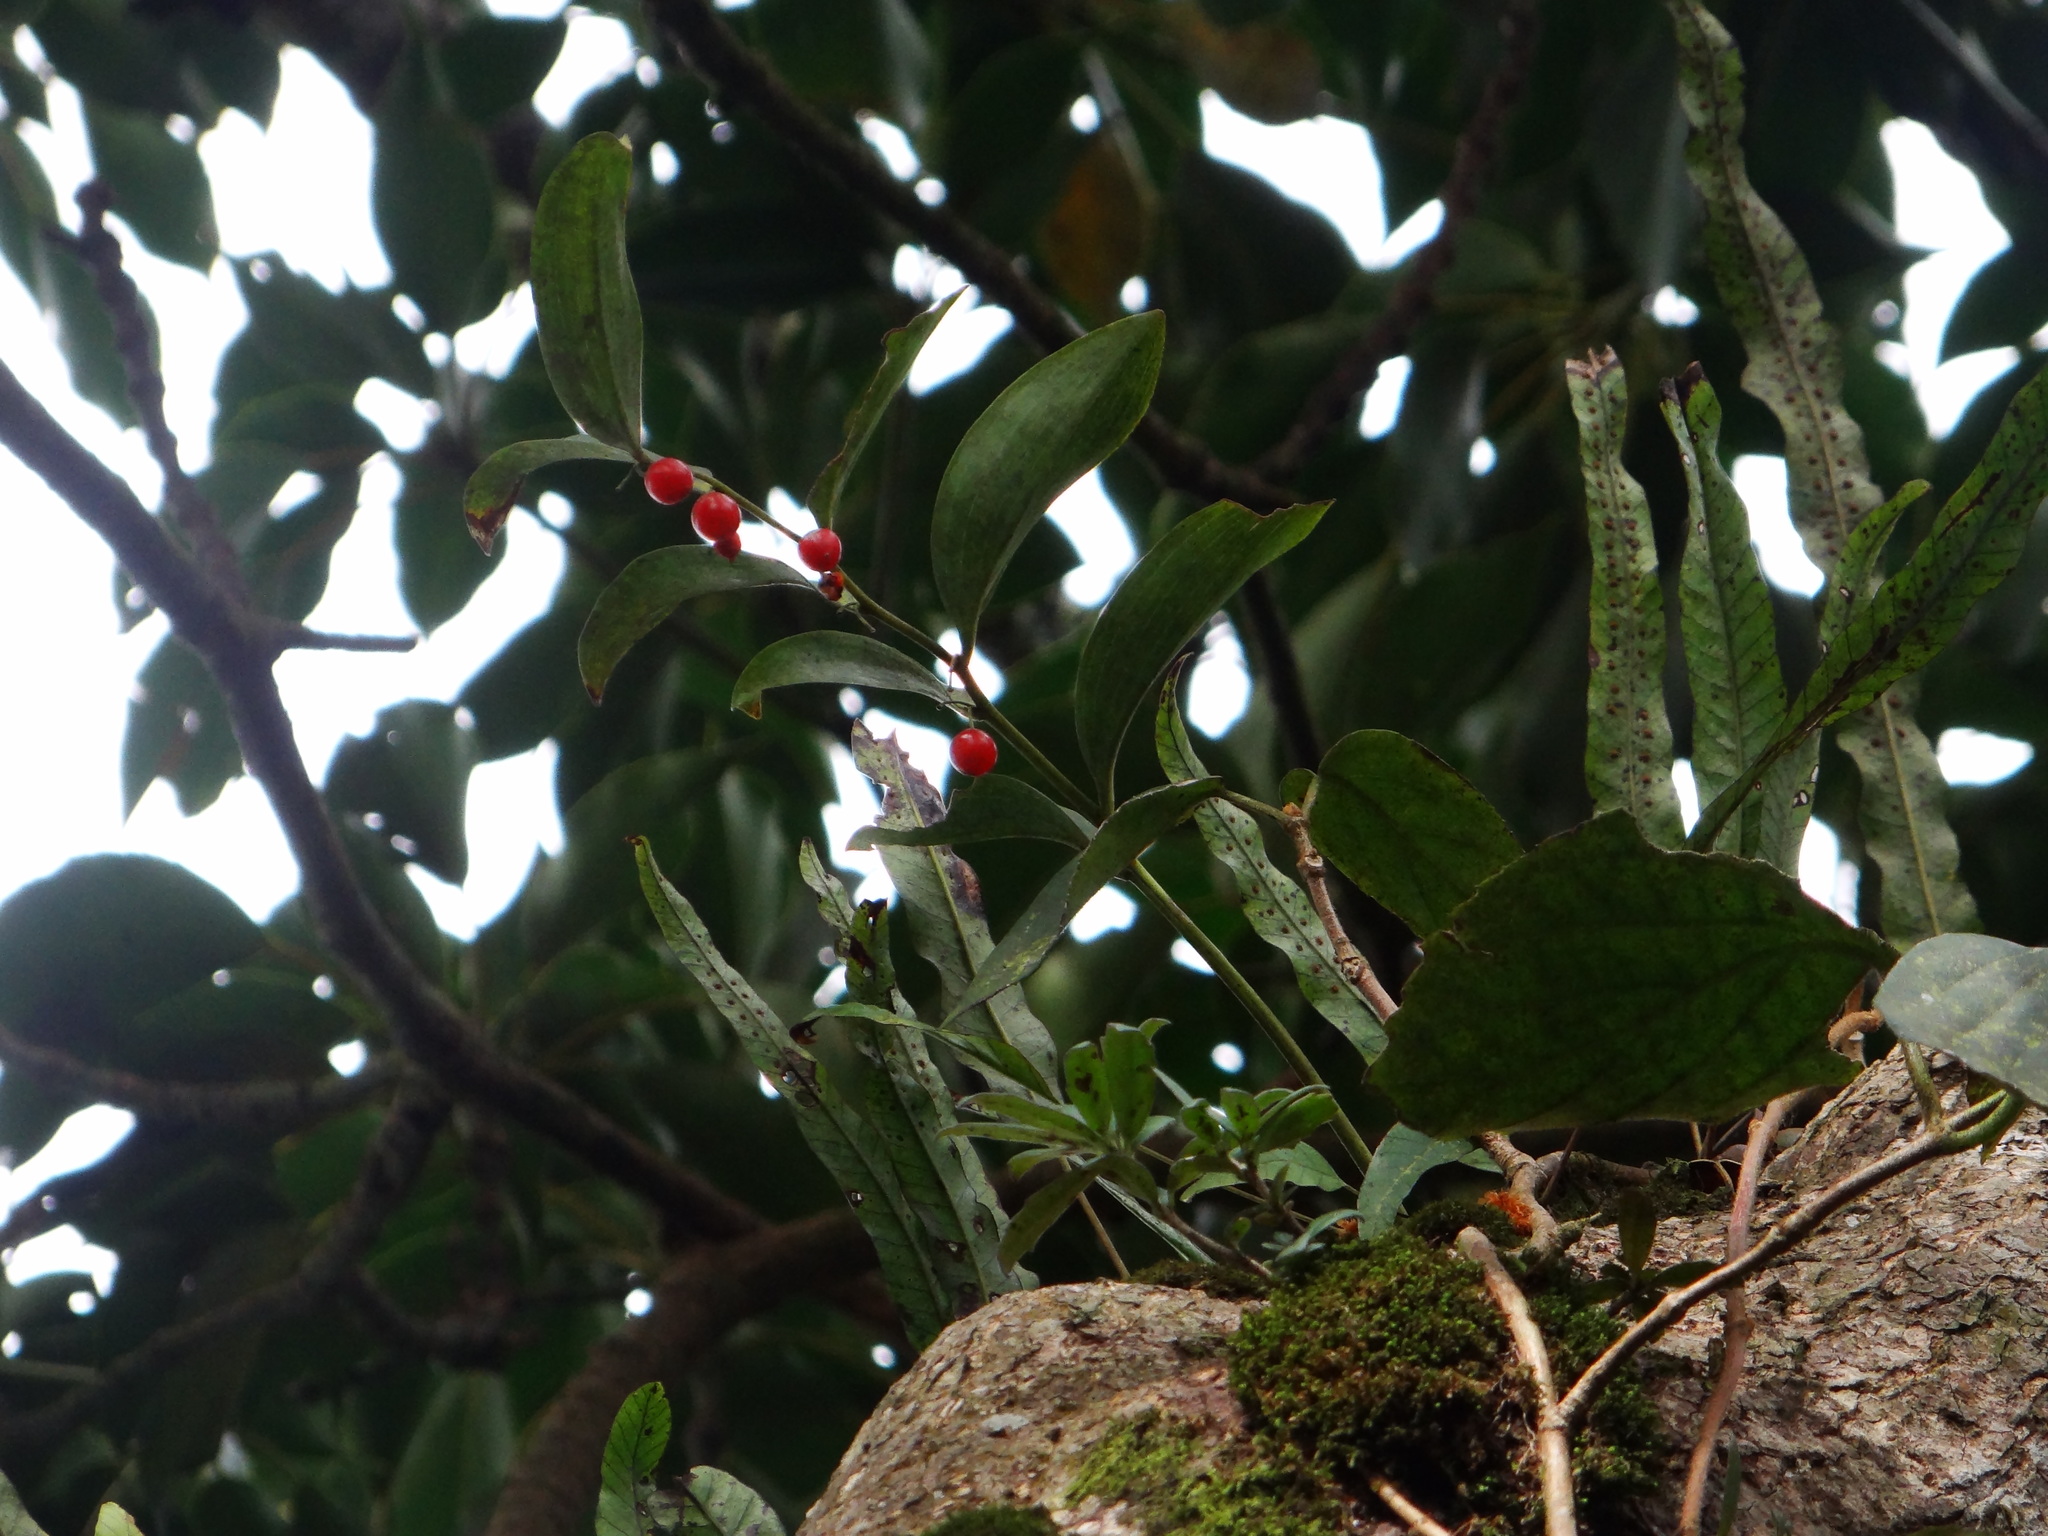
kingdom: Plantae
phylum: Tracheophyta
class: Liliopsida
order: Asparagales
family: Asparagaceae
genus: Heteropolygonatum
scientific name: Heteropolygonatum alte-lobatum
